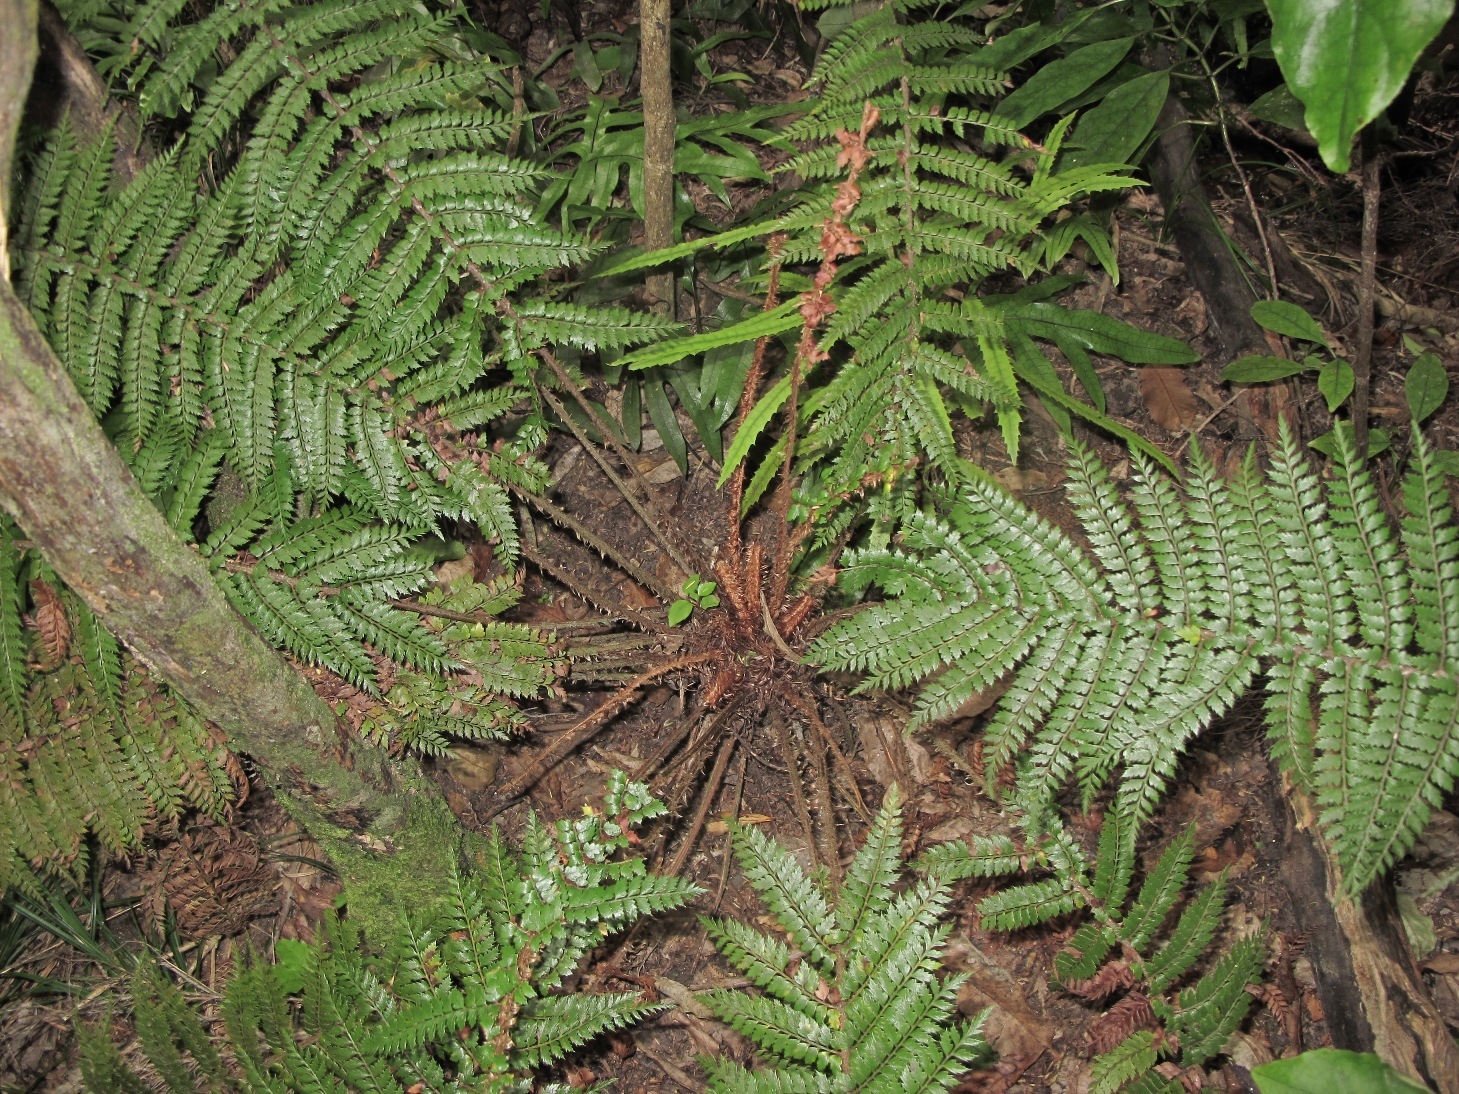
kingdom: Plantae
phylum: Tracheophyta
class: Polypodiopsida
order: Polypodiales
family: Dryopteridaceae
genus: Polystichum
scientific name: Polystichum vestitum
